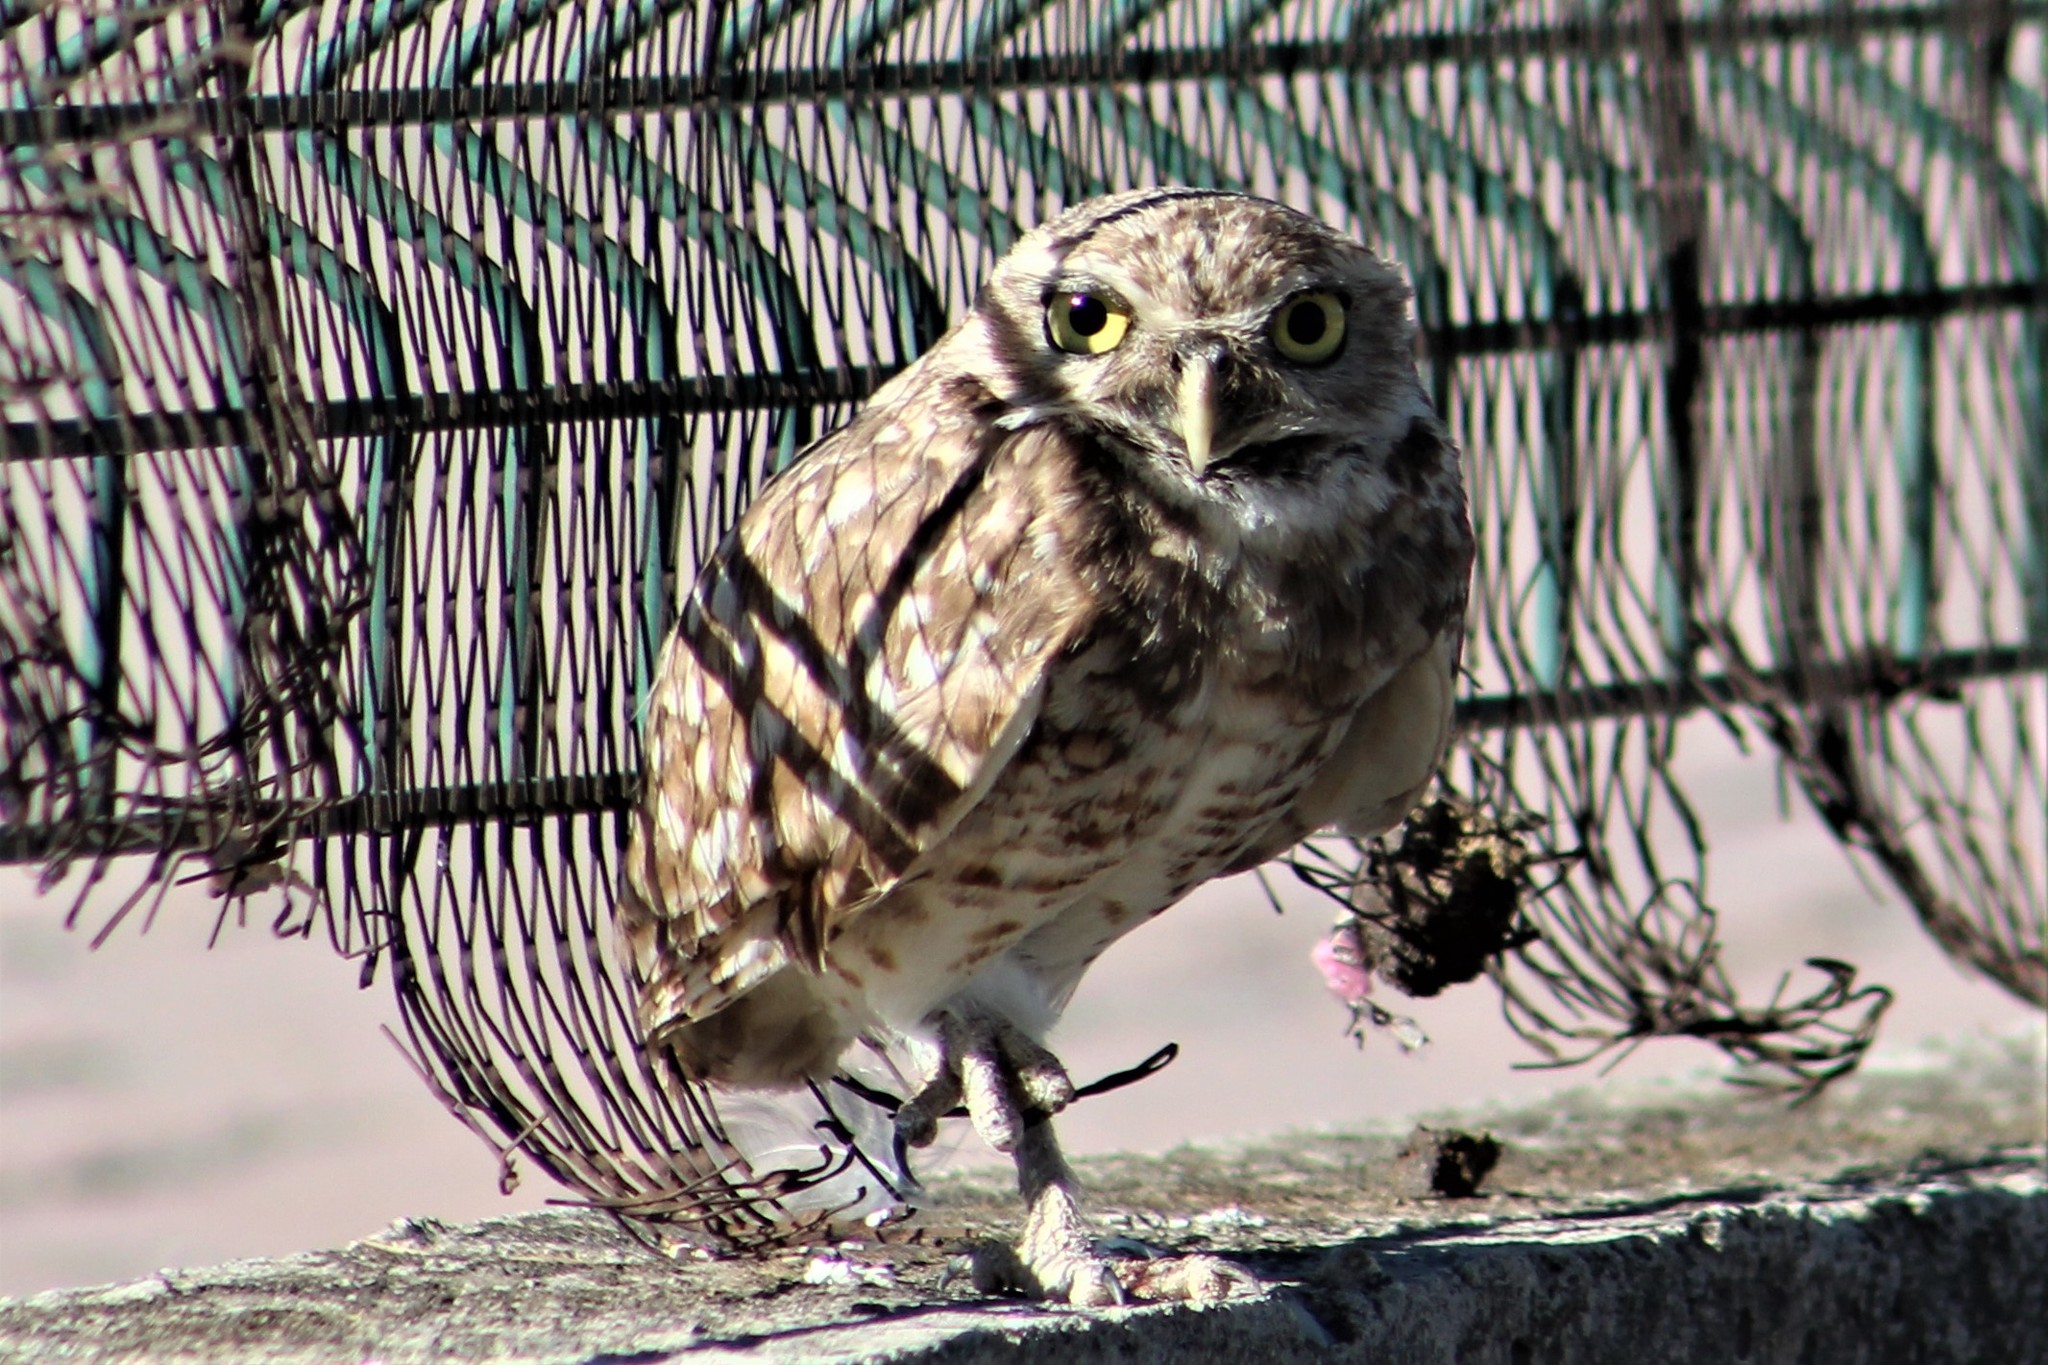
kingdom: Animalia
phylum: Chordata
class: Aves
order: Strigiformes
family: Strigidae
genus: Athene
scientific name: Athene cunicularia
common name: Burrowing owl
